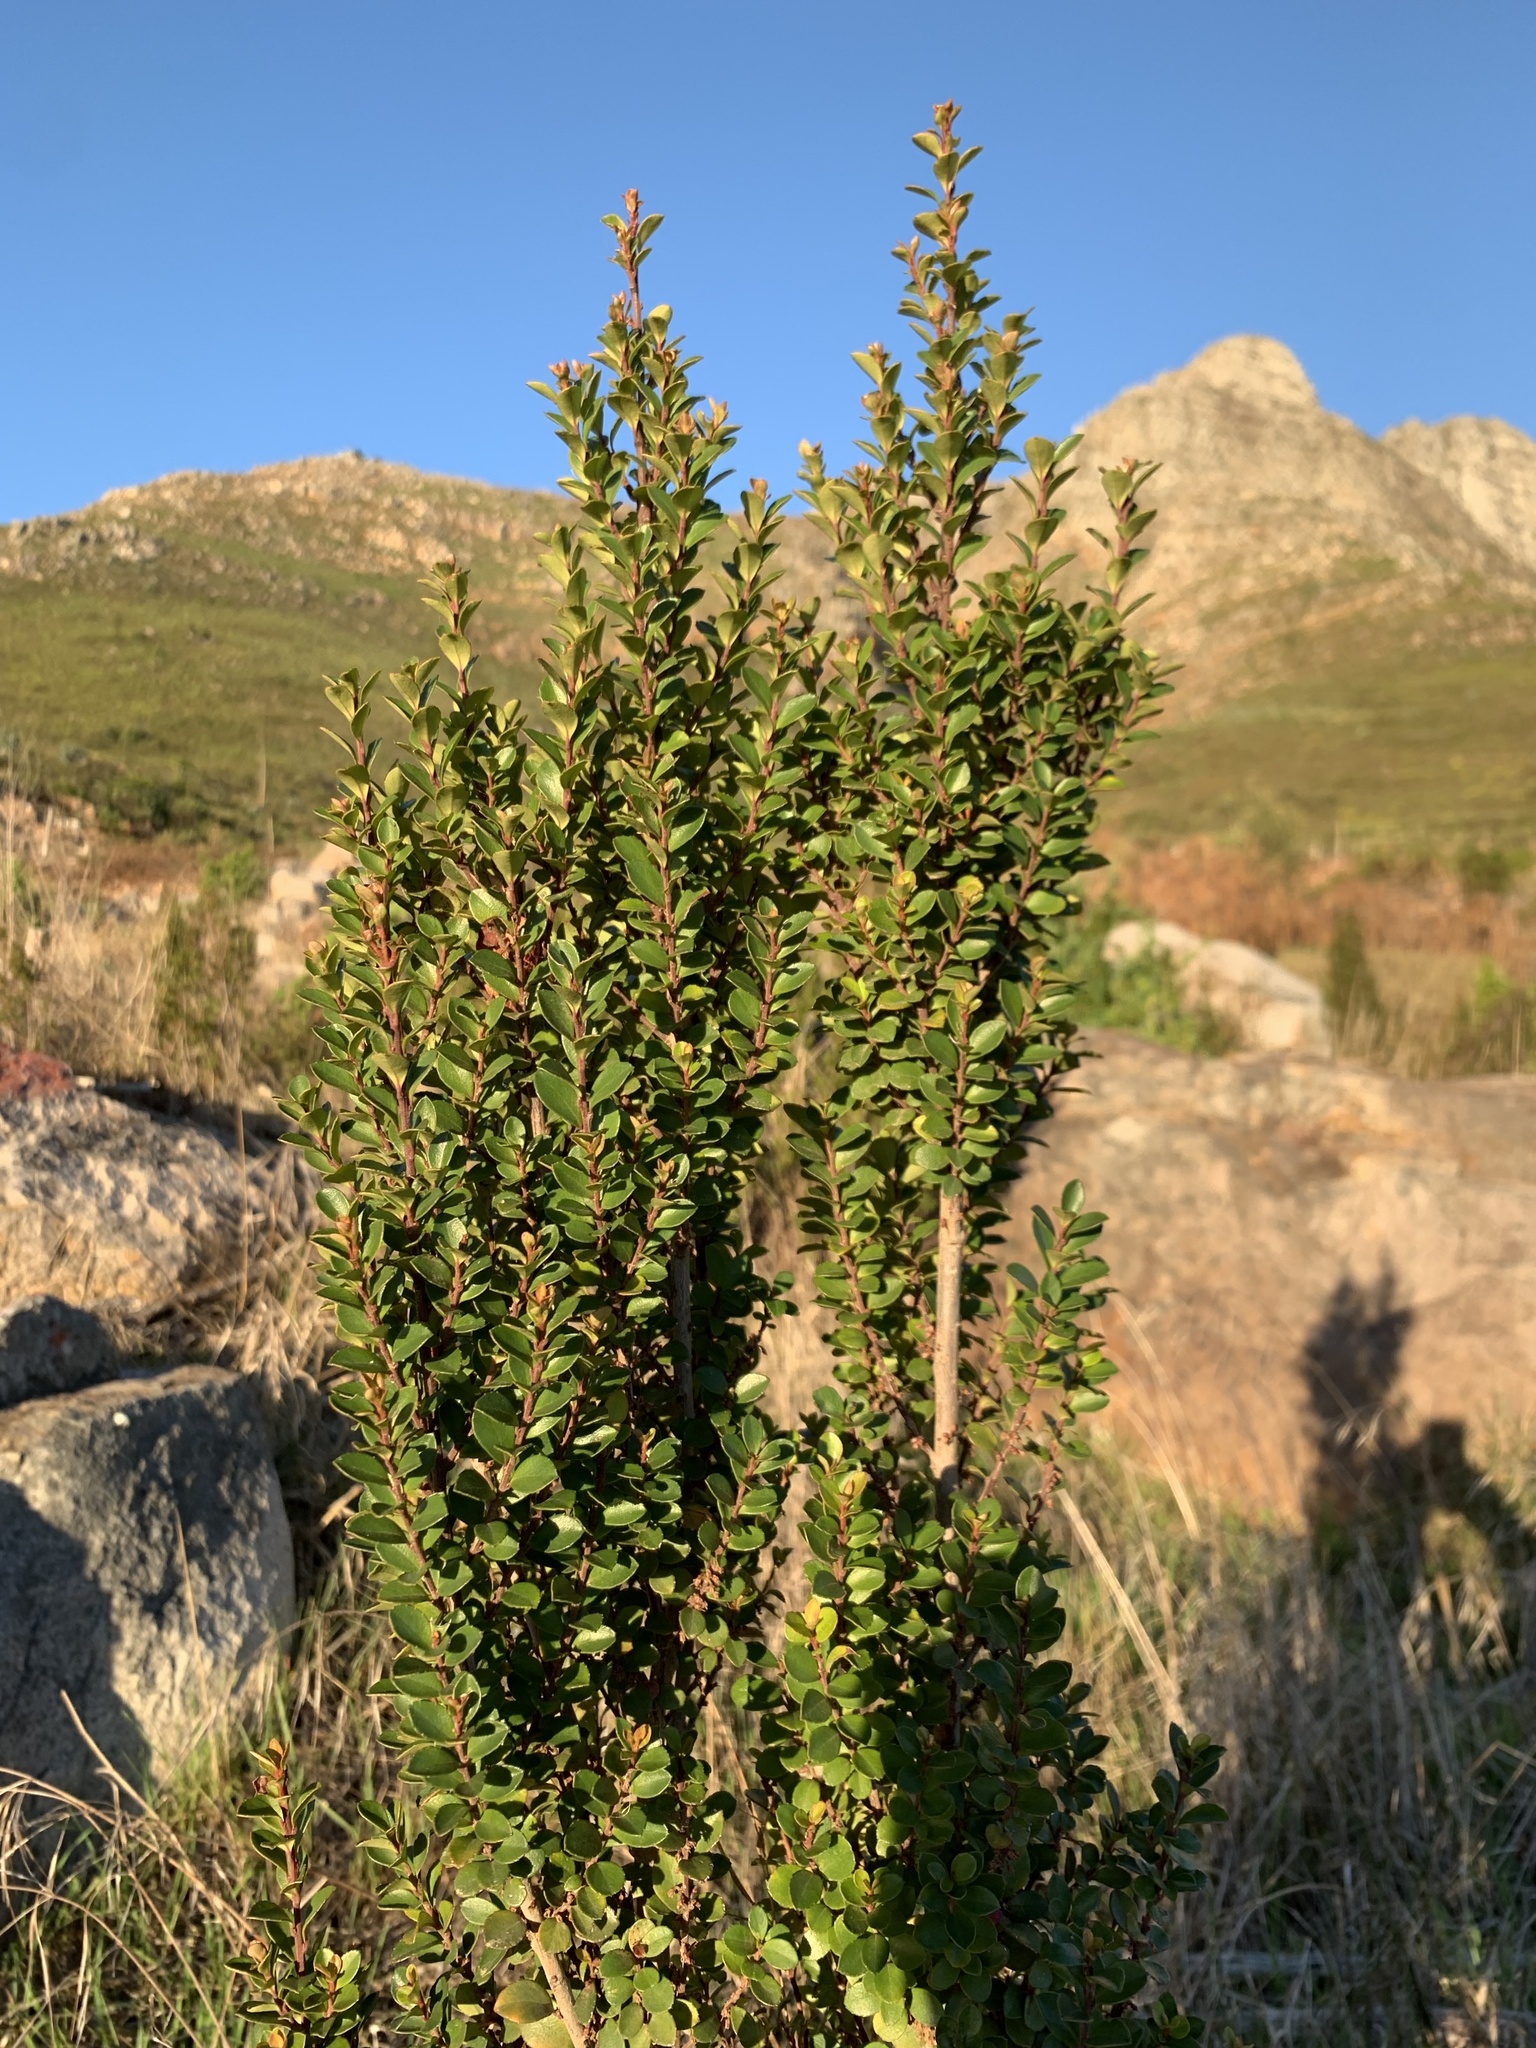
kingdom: Plantae
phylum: Tracheophyta
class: Magnoliopsida
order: Ericales
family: Primulaceae
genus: Myrsine
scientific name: Myrsine africana
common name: African-boxwood
